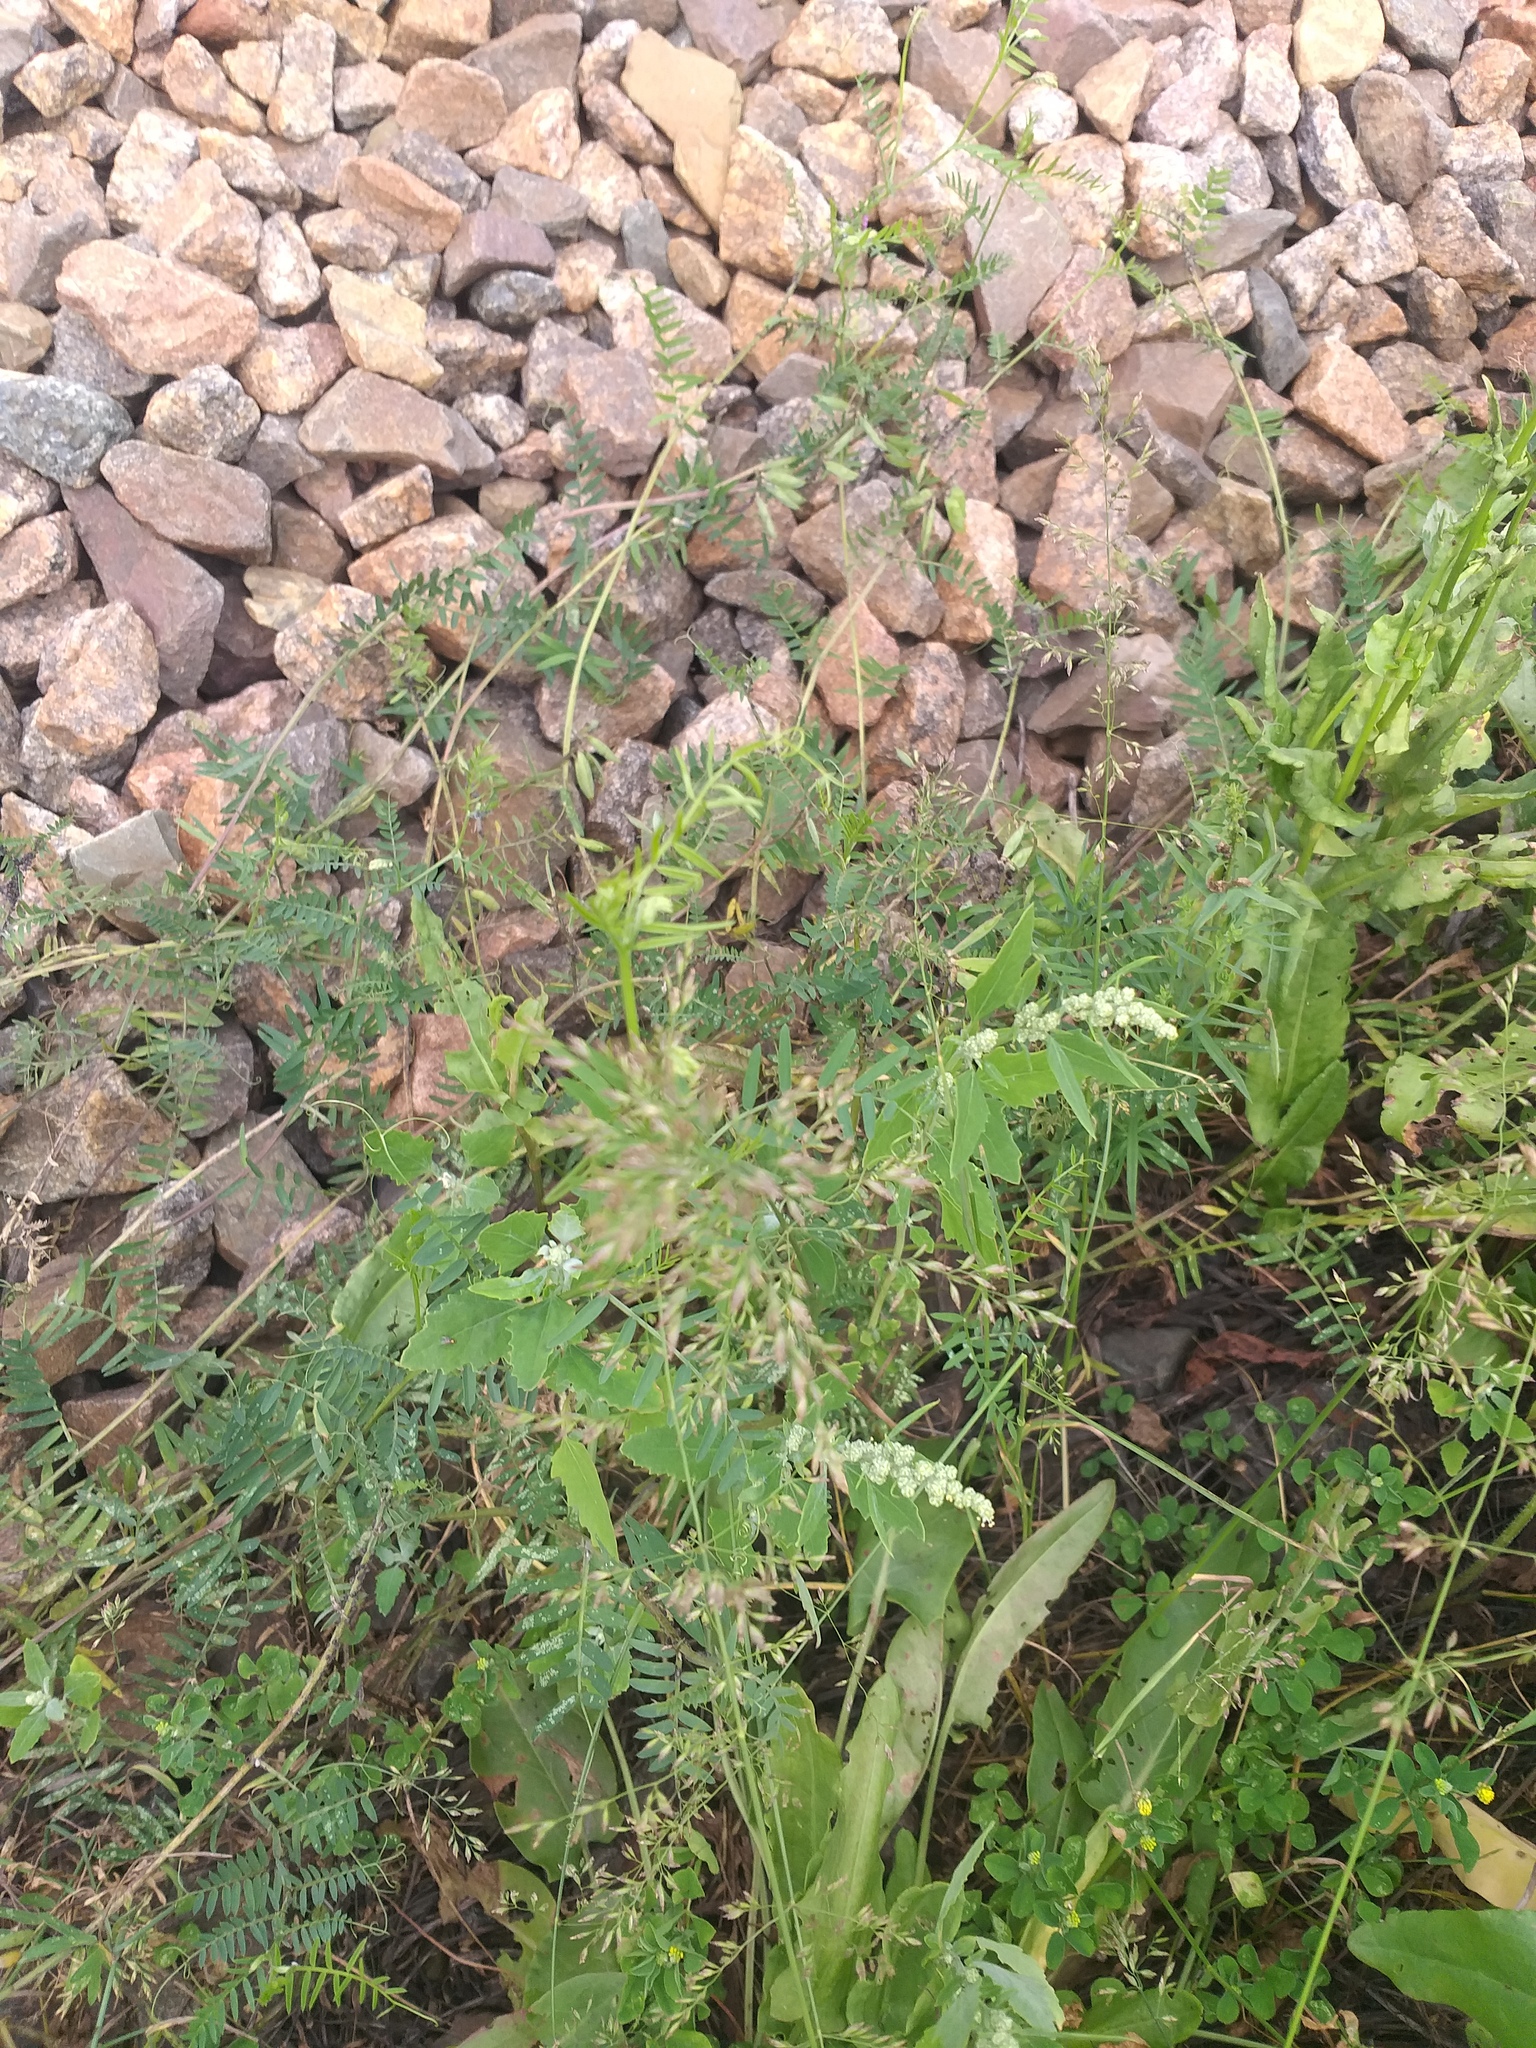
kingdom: Plantae
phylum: Tracheophyta
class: Magnoliopsida
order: Caryophyllales
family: Amaranthaceae
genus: Chenopodium
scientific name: Chenopodium album
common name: Fat-hen
